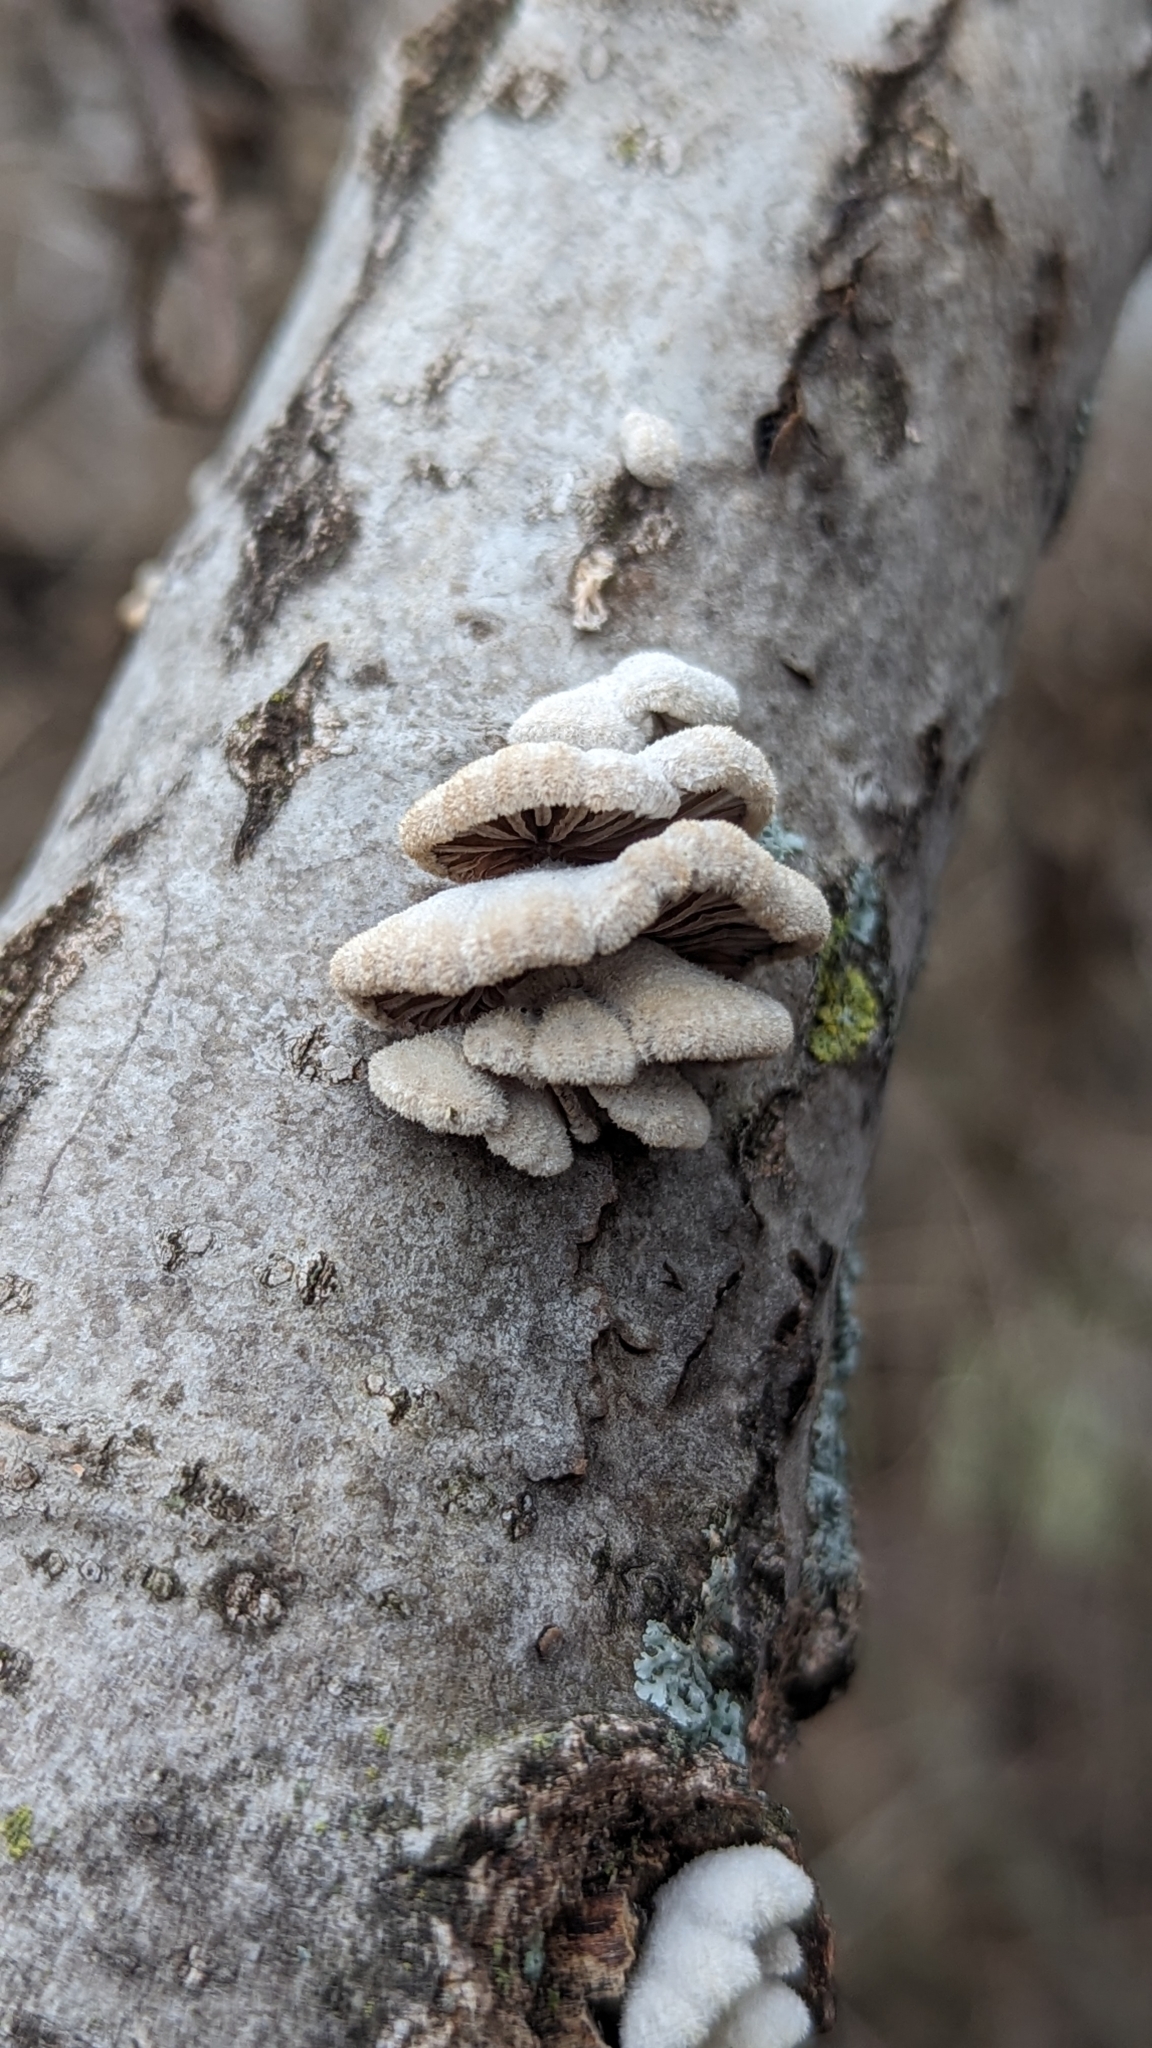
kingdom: Fungi
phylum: Basidiomycota
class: Agaricomycetes
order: Agaricales
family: Schizophyllaceae
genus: Schizophyllum
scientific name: Schizophyllum commune
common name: Common porecrust
